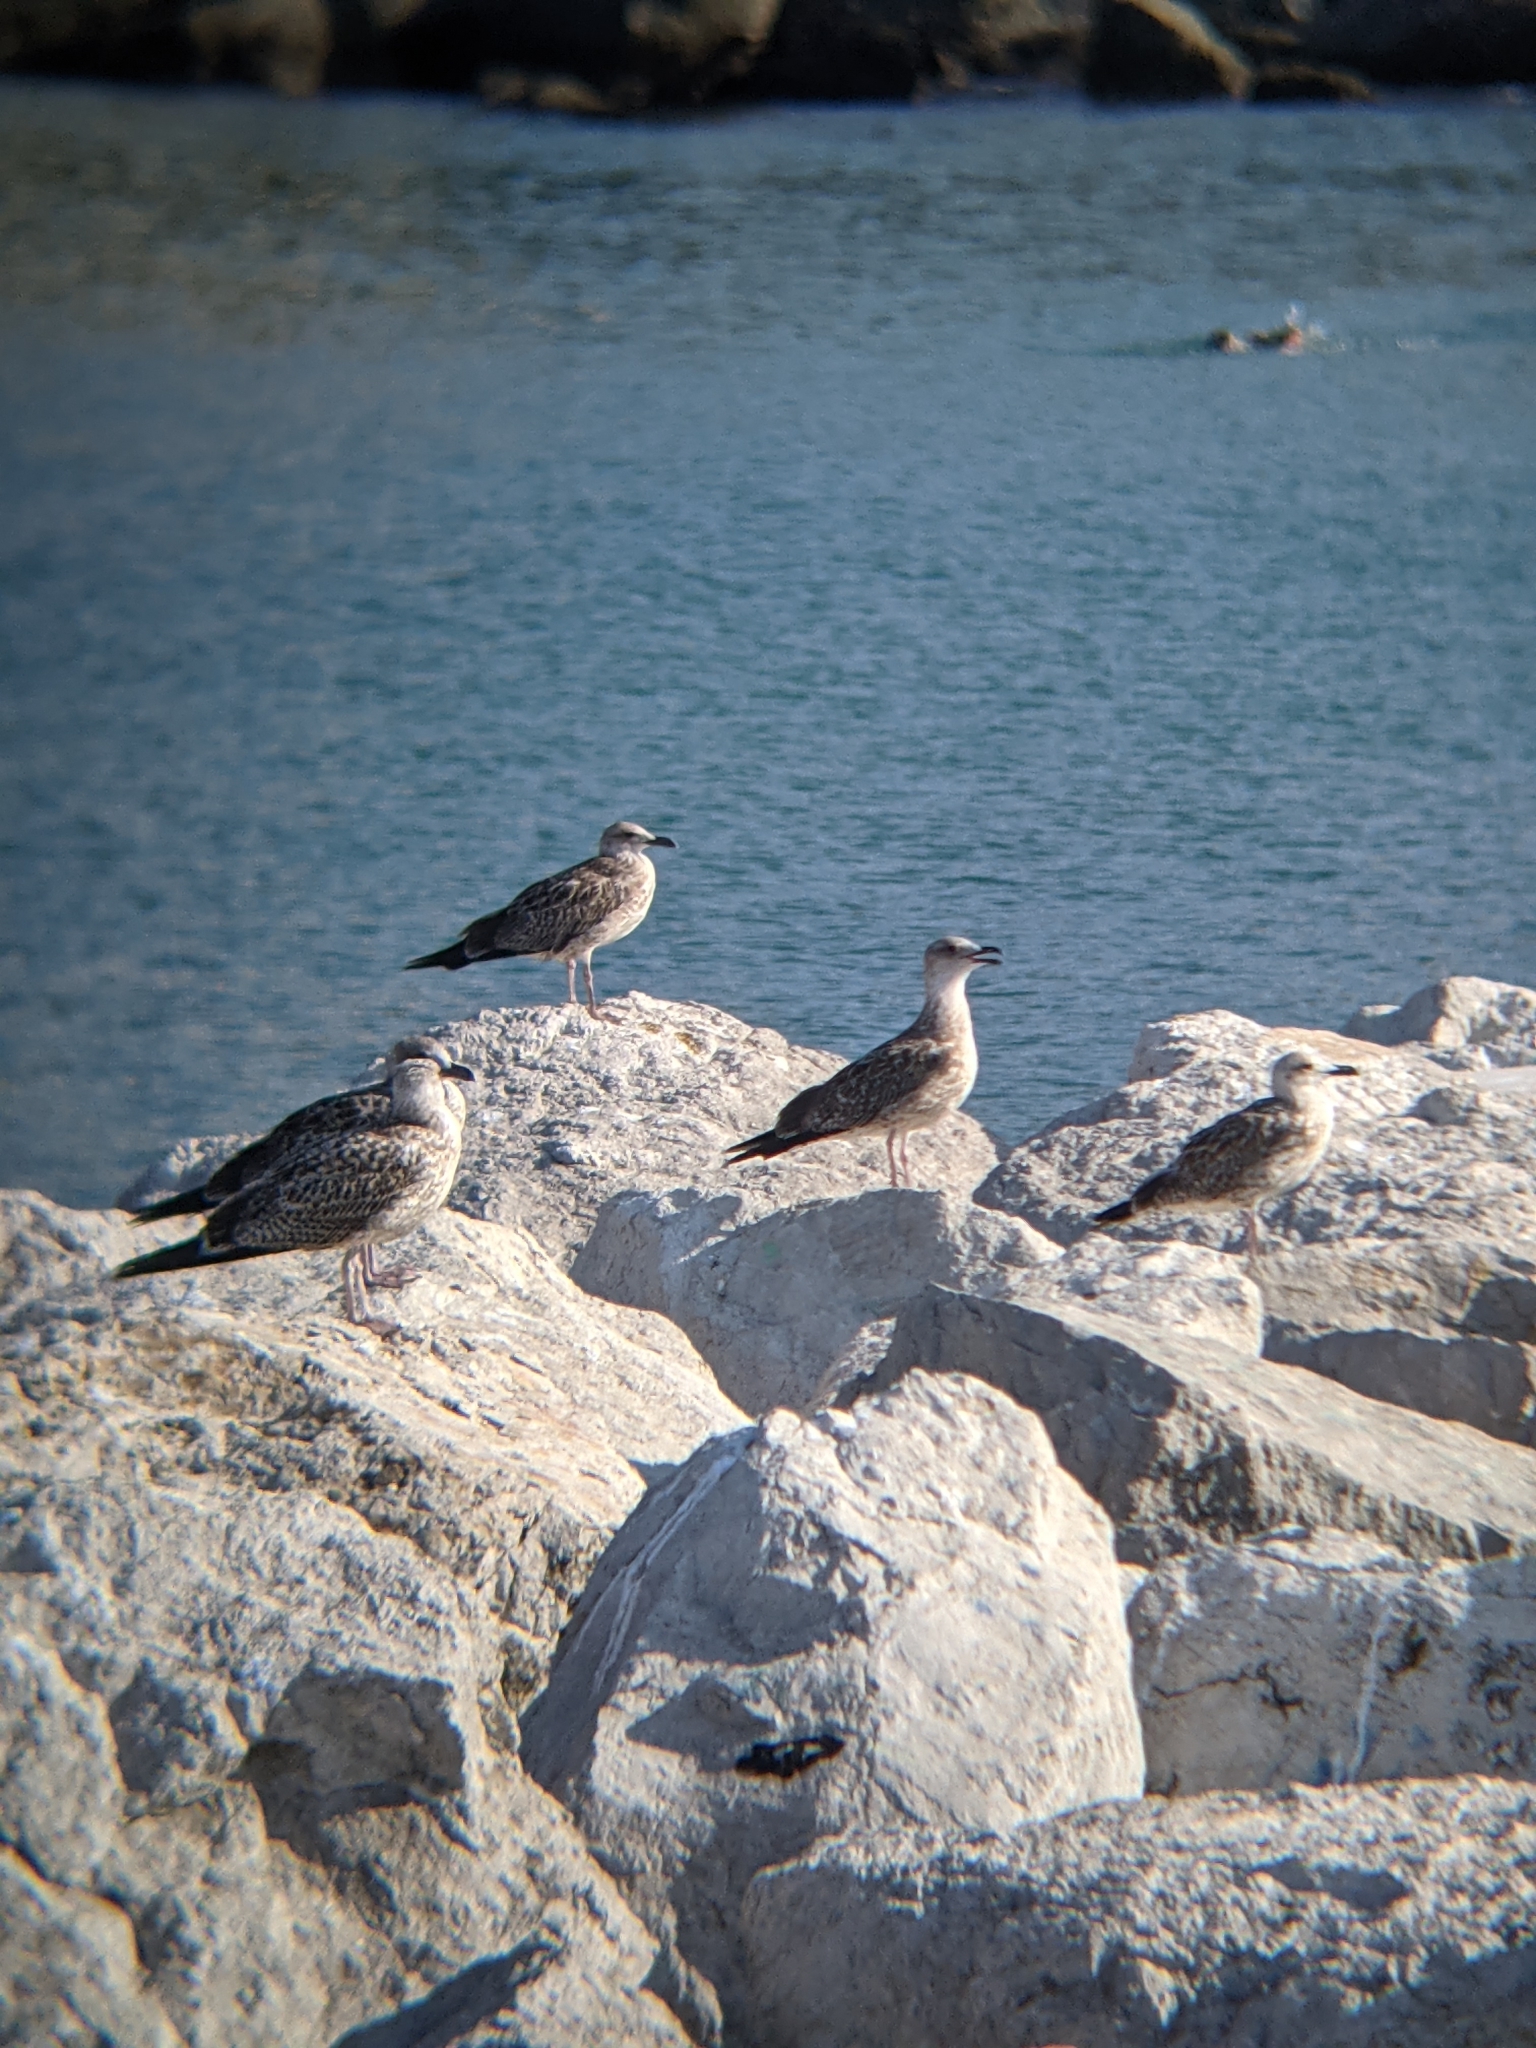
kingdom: Animalia
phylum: Chordata
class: Aves
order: Charadriiformes
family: Laridae
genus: Larus
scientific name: Larus michahellis
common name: Yellow-legged gull
